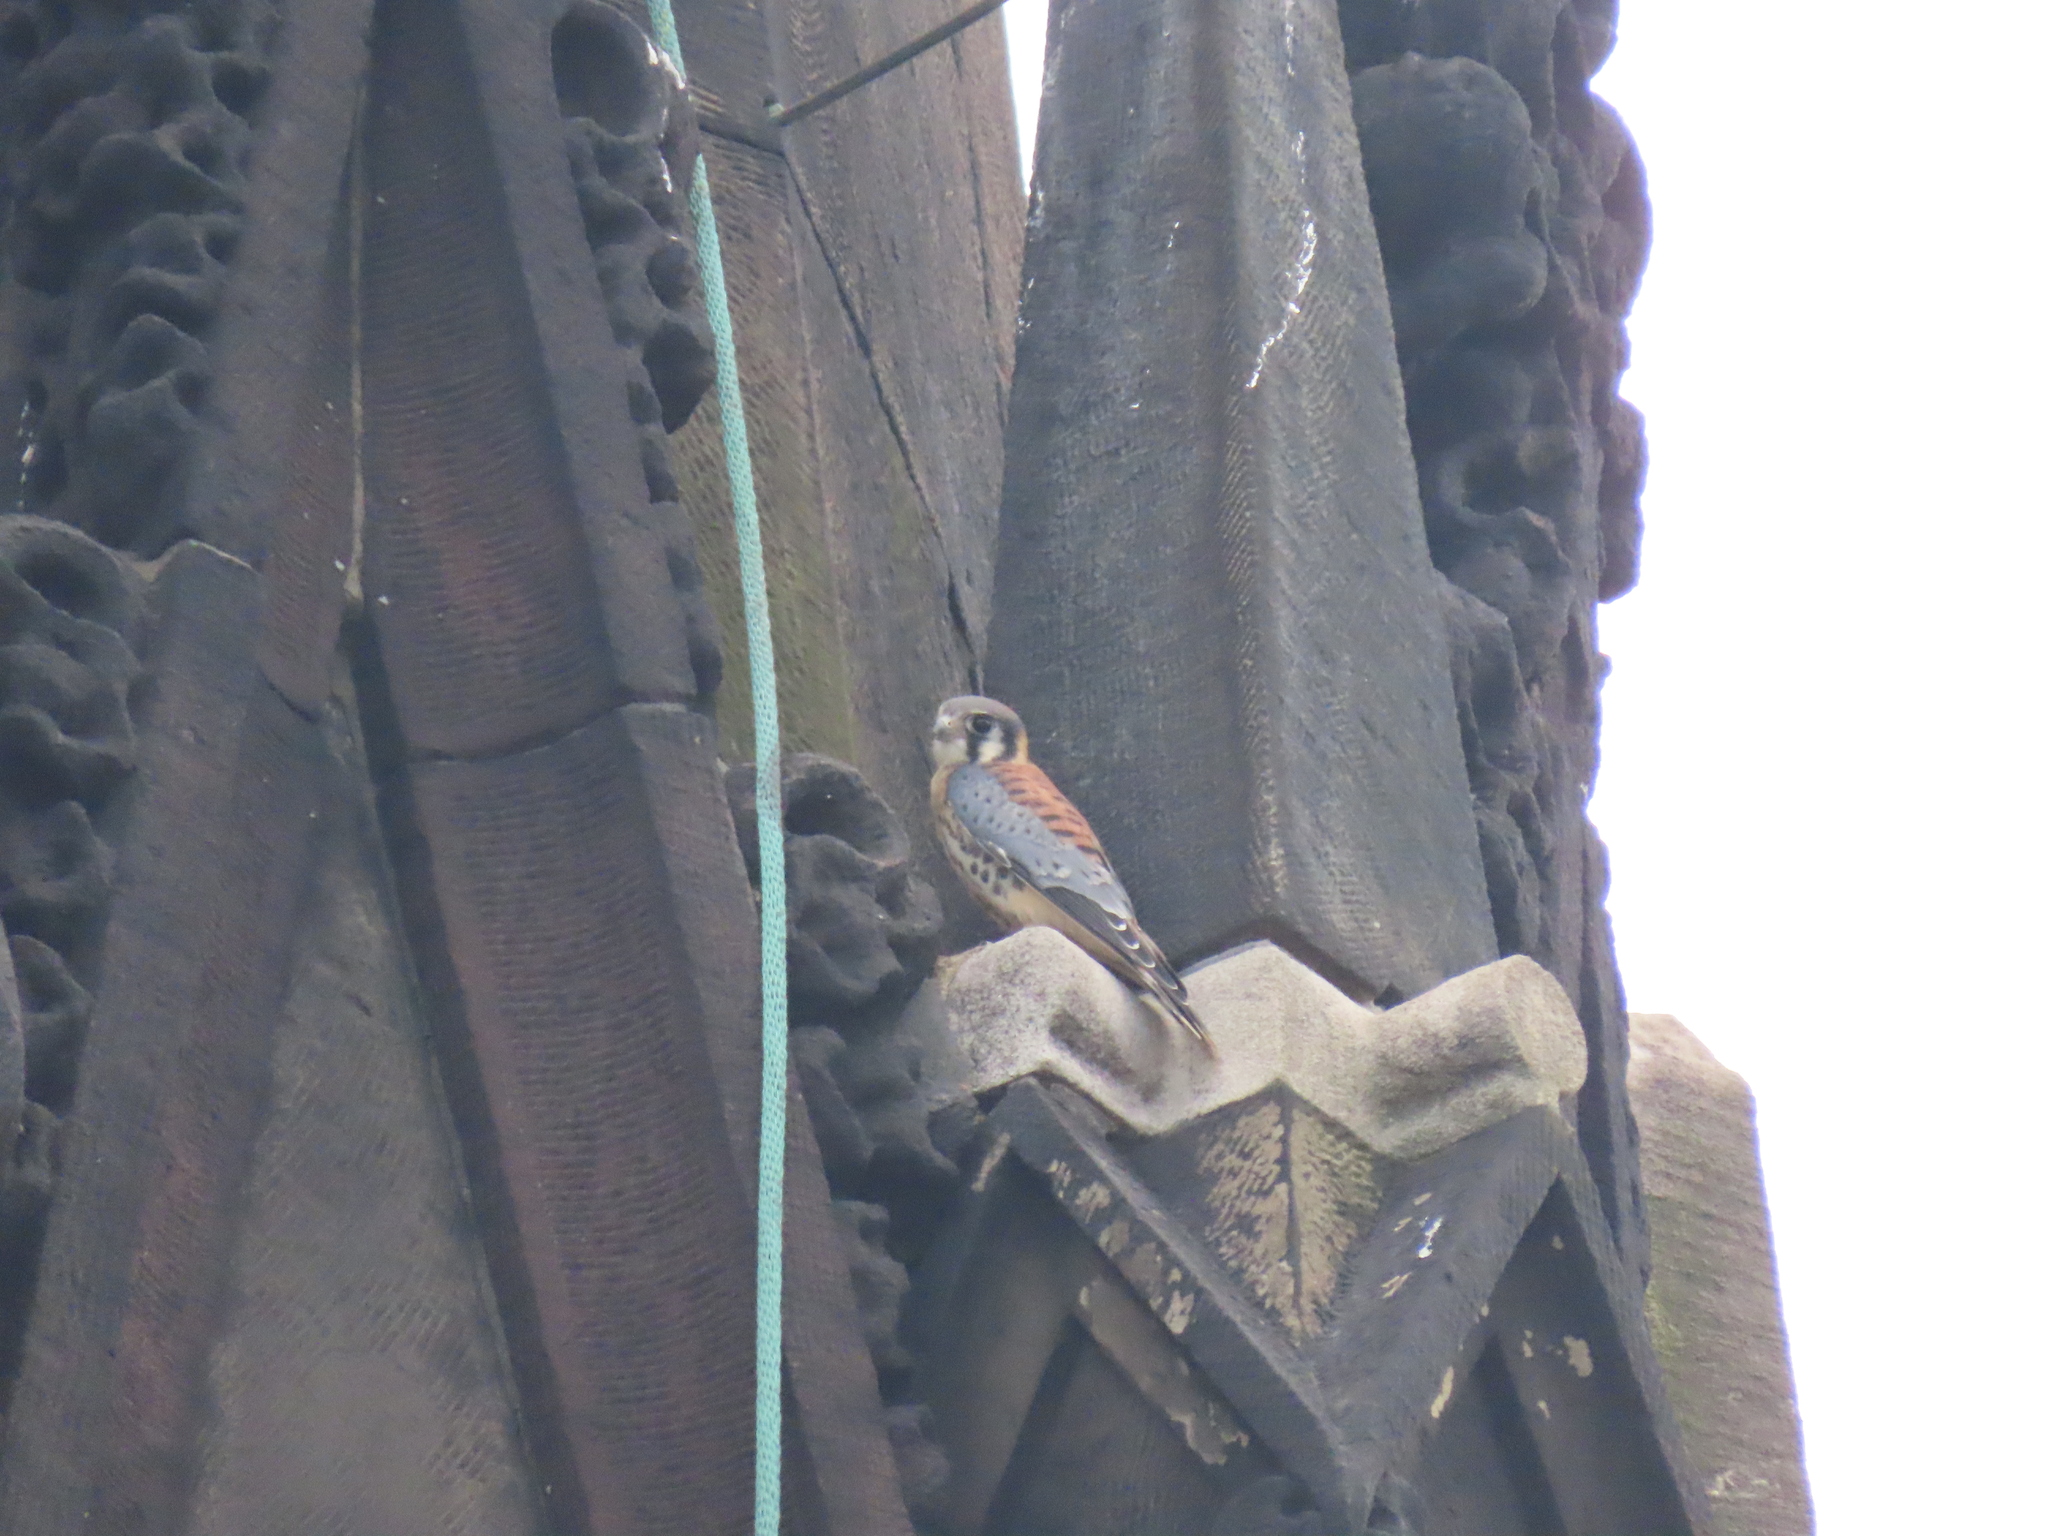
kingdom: Animalia
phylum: Chordata
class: Aves
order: Falconiformes
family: Falconidae
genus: Falco
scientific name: Falco sparverius
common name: American kestrel
